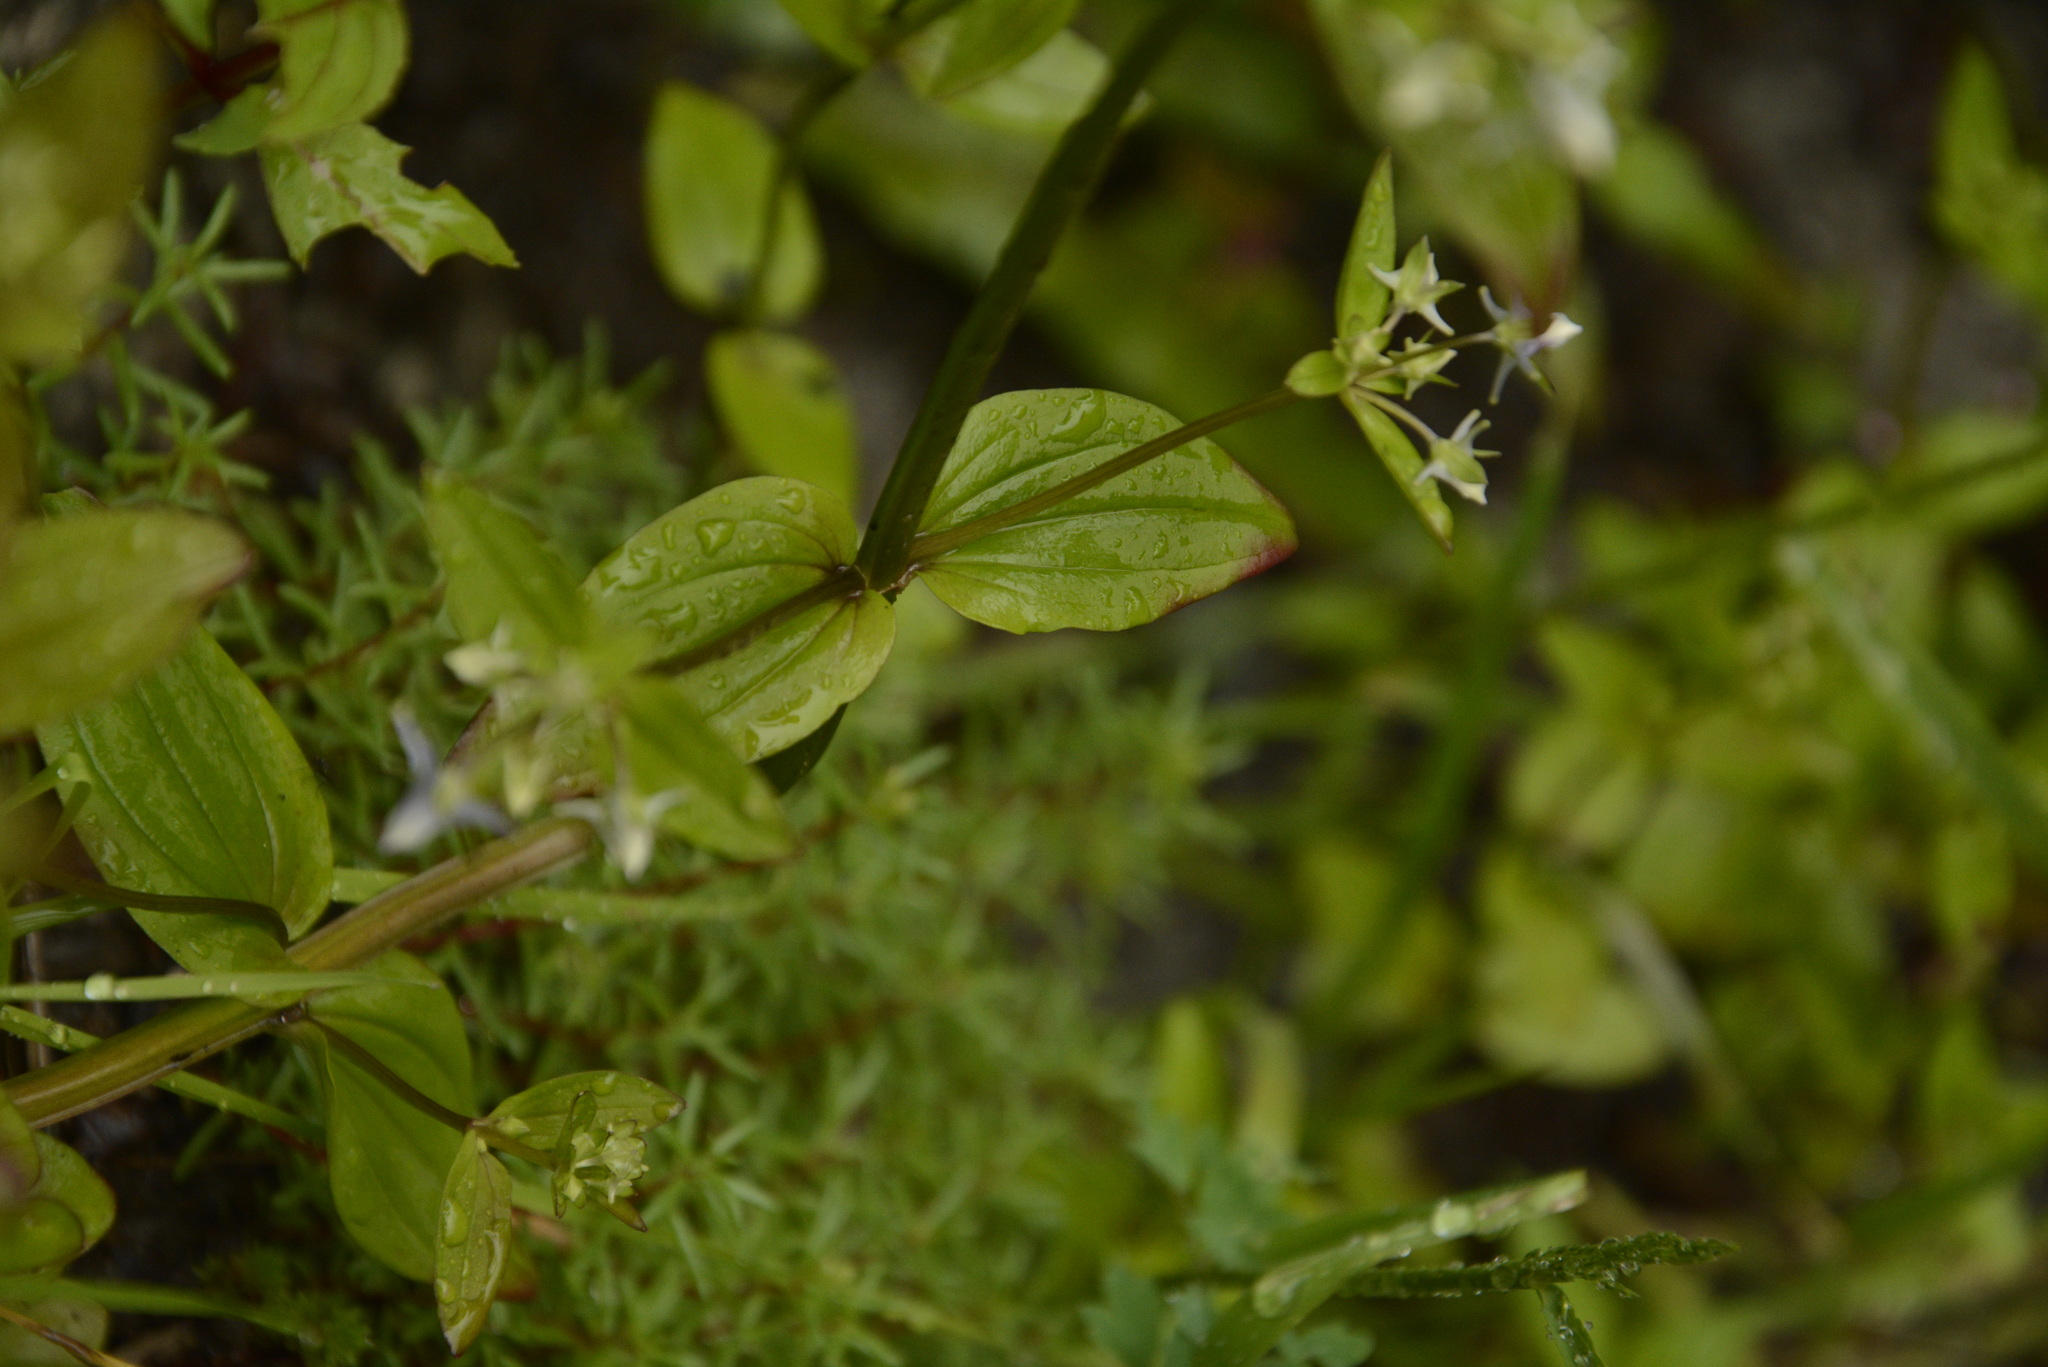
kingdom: Plantae
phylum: Tracheophyta
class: Magnoliopsida
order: Gentianales
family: Gentianaceae
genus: Halenia
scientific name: Halenia elliptica
